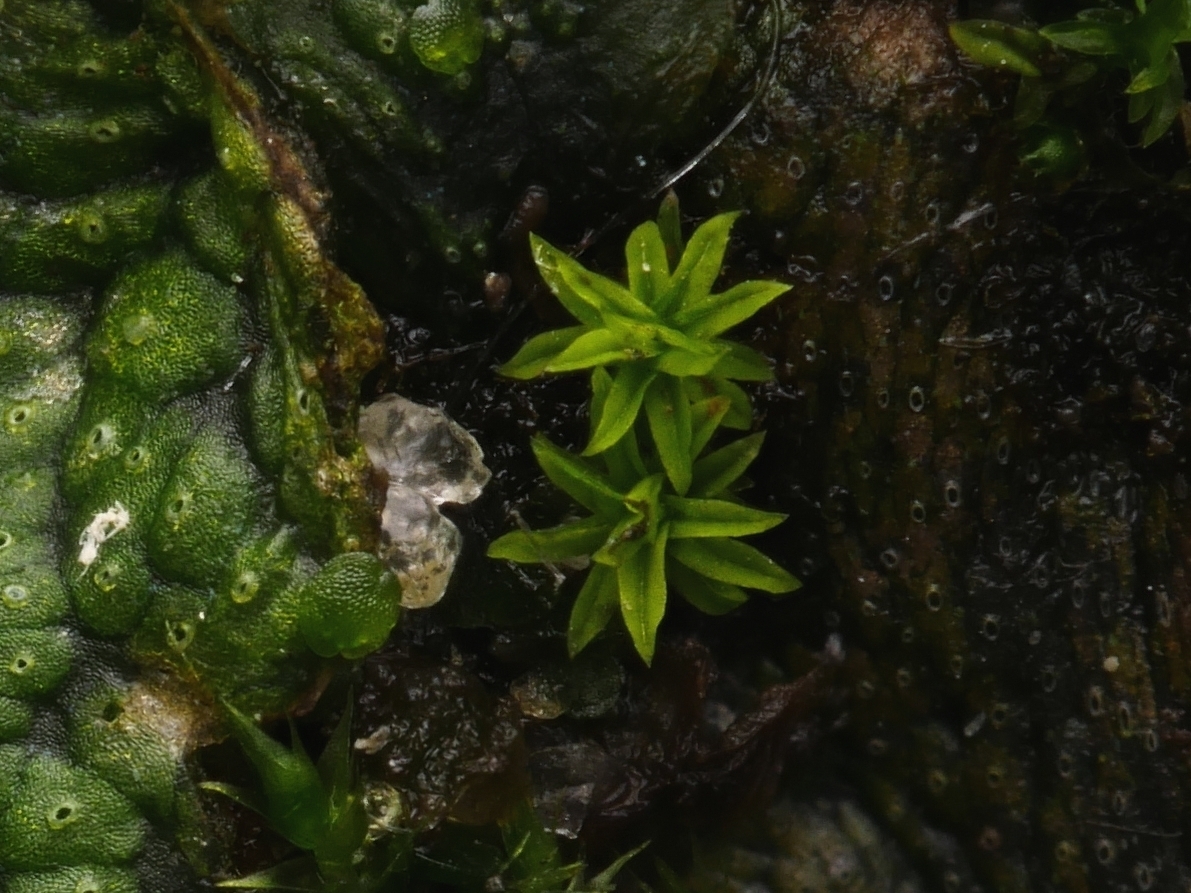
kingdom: Plantae
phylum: Bryophyta
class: Bryopsida
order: Pottiales
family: Pottiaceae
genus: Barbula
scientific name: Barbula unguiculata
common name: Prickly beard moss
